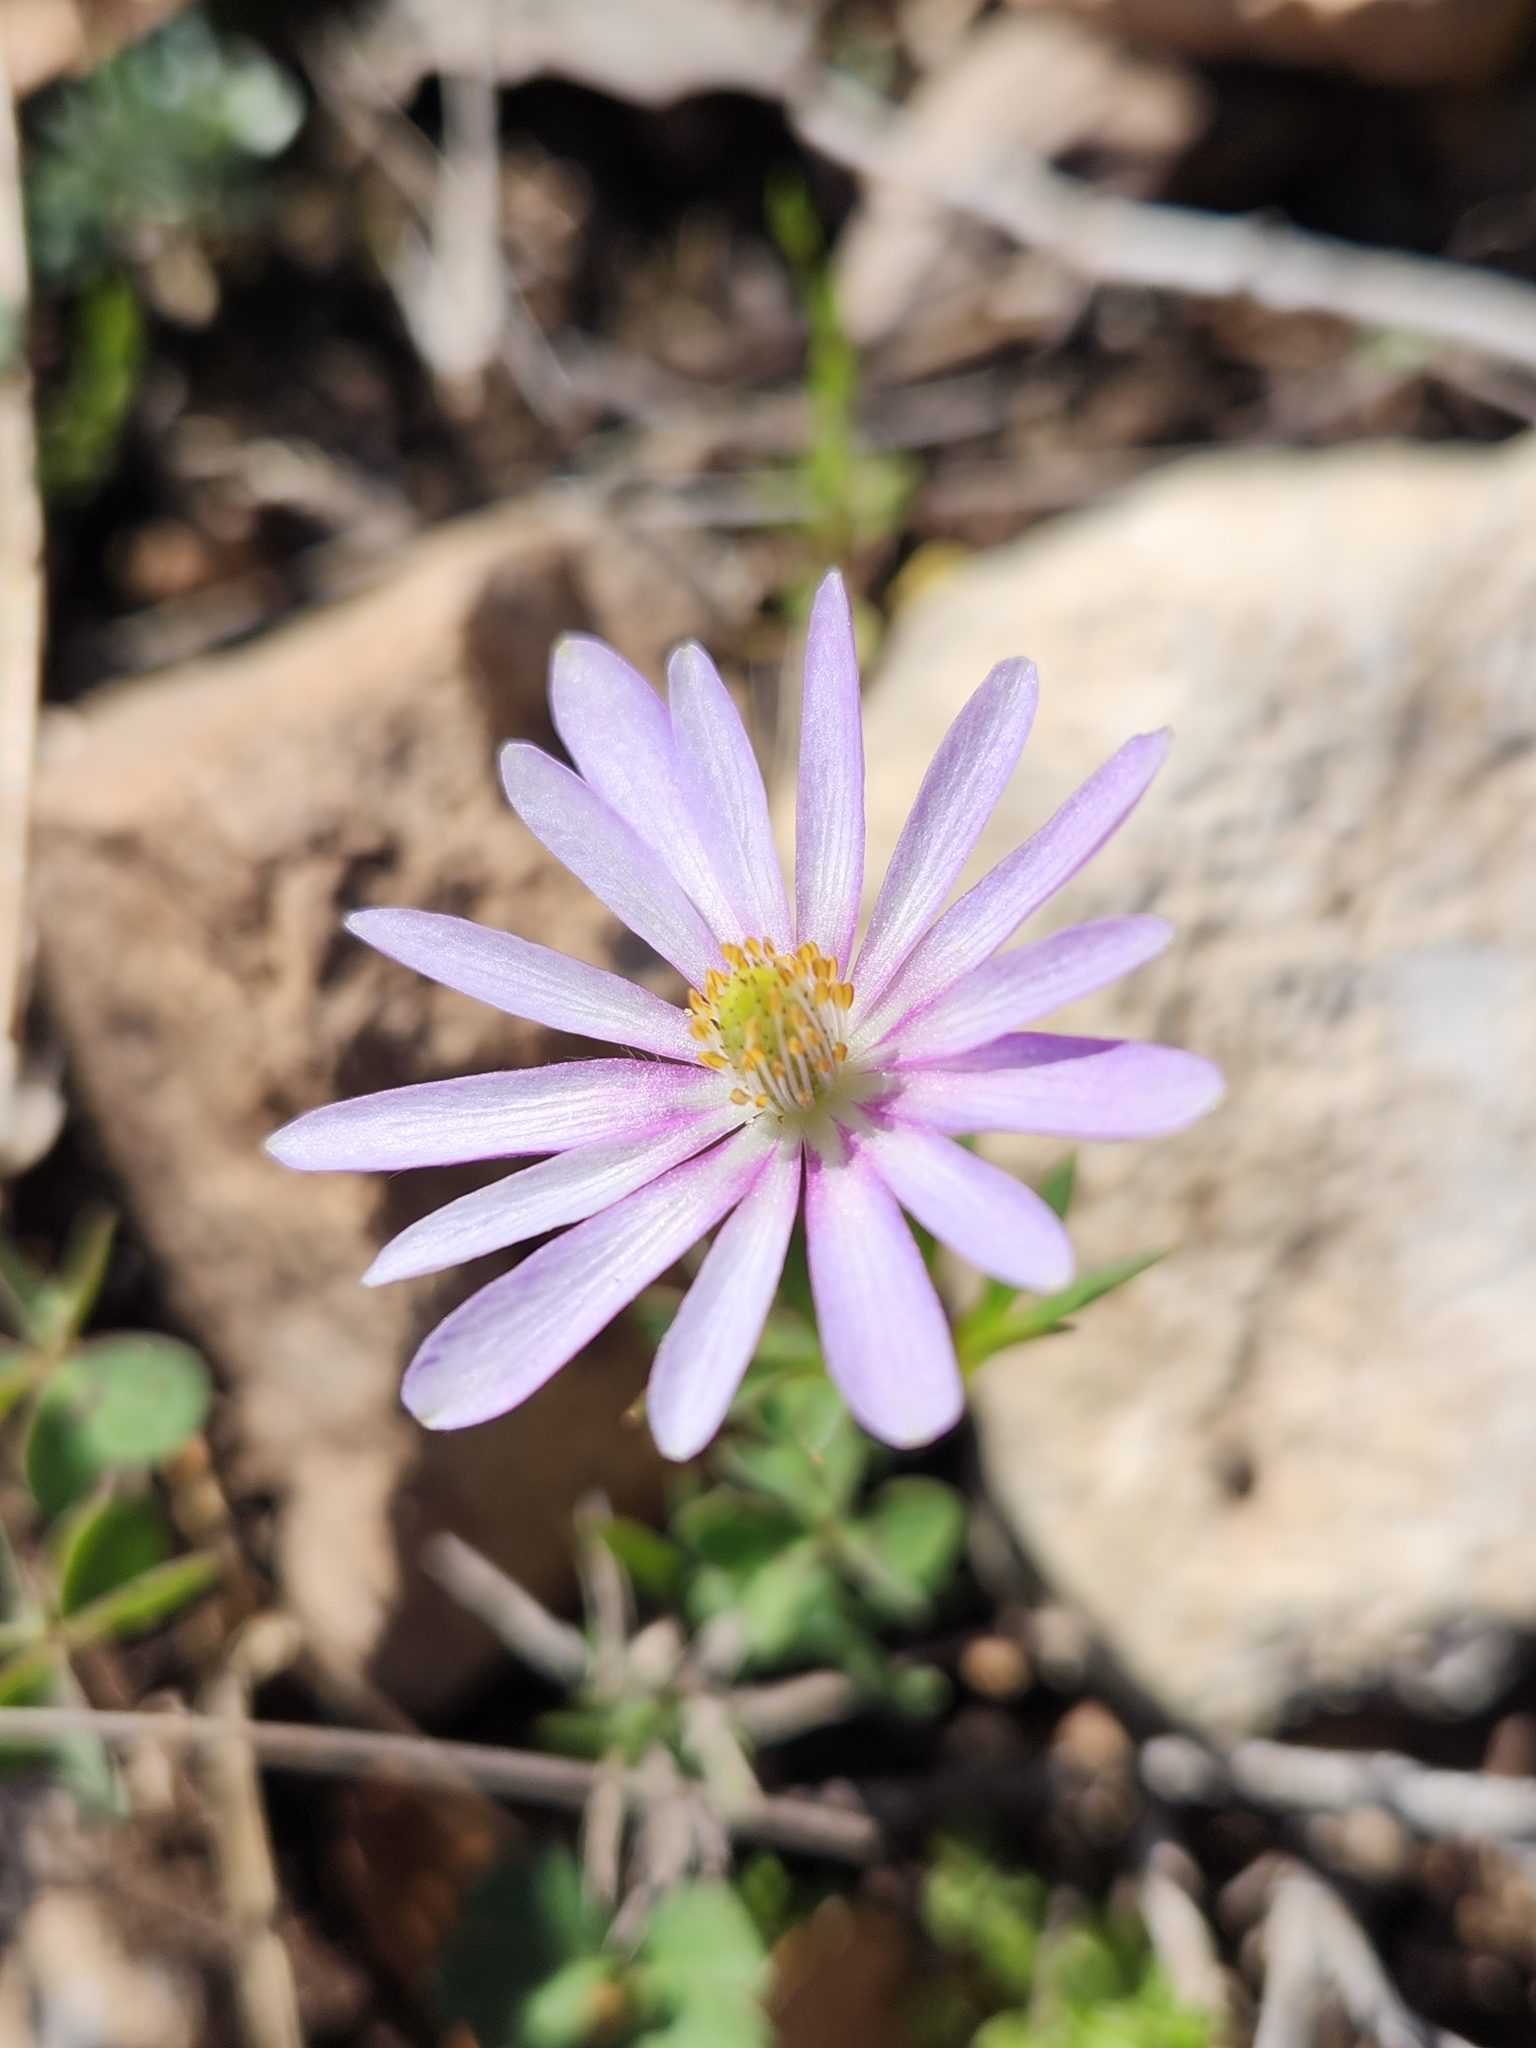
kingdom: Plantae
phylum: Tracheophyta
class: Magnoliopsida
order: Ranunculales
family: Ranunculaceae
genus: Anemone
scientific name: Anemone berlandieri
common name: Ten-petal anemone
